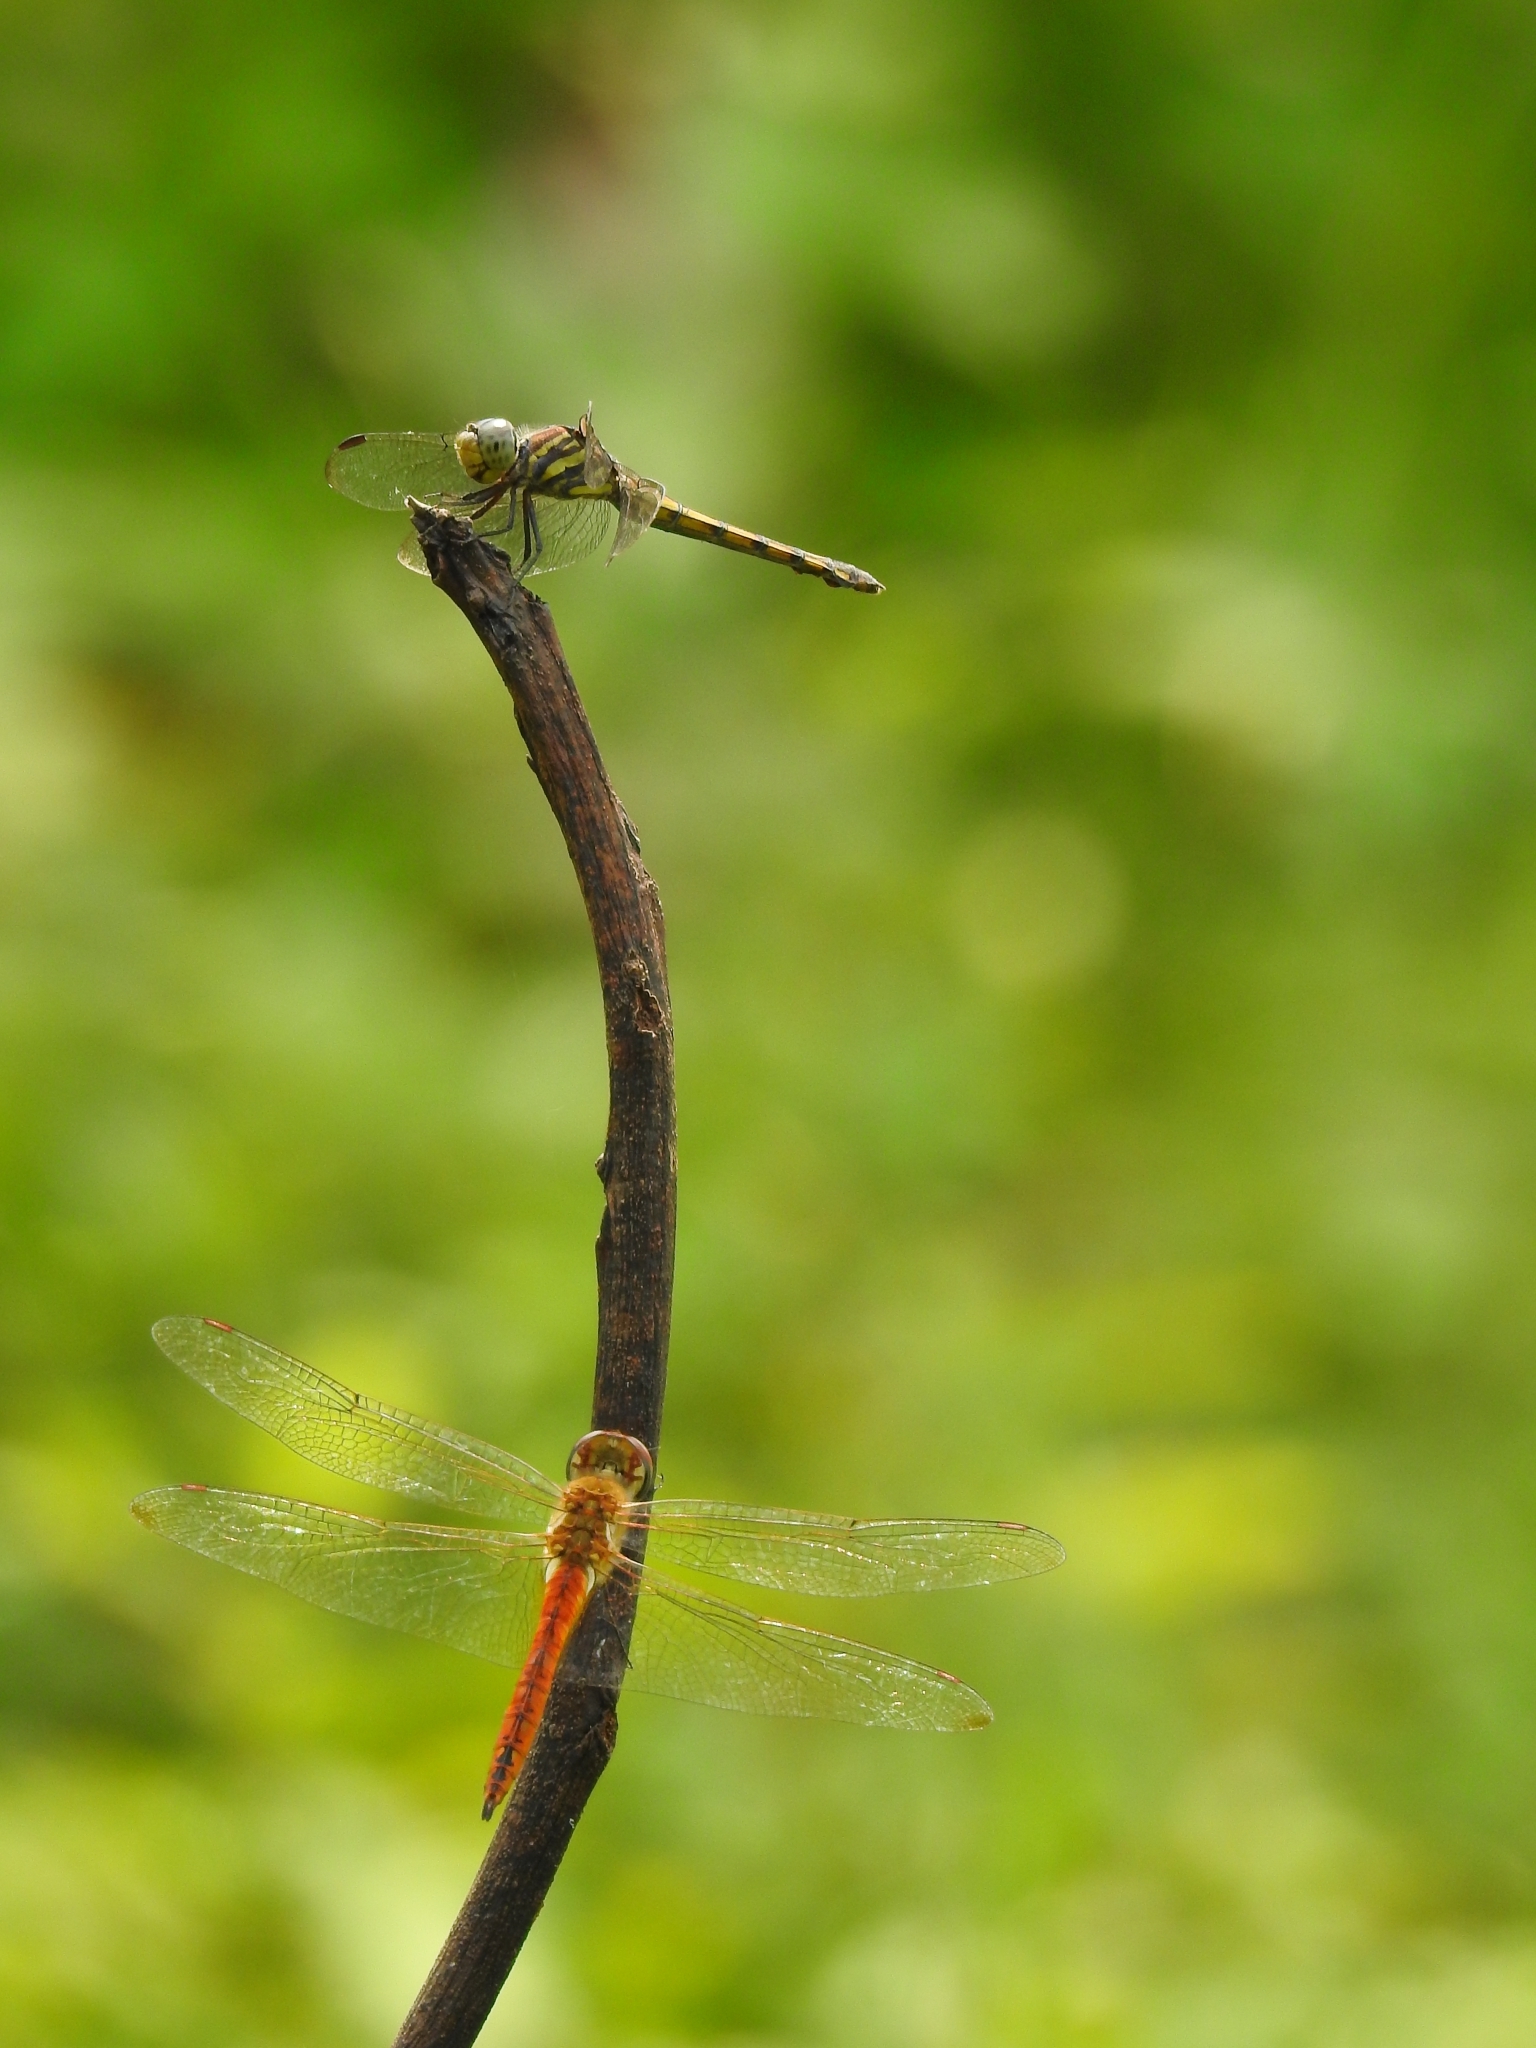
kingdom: Animalia
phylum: Arthropoda
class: Insecta
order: Odonata
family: Libellulidae
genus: Potamarcha
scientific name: Potamarcha congener
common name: Blue chaser
